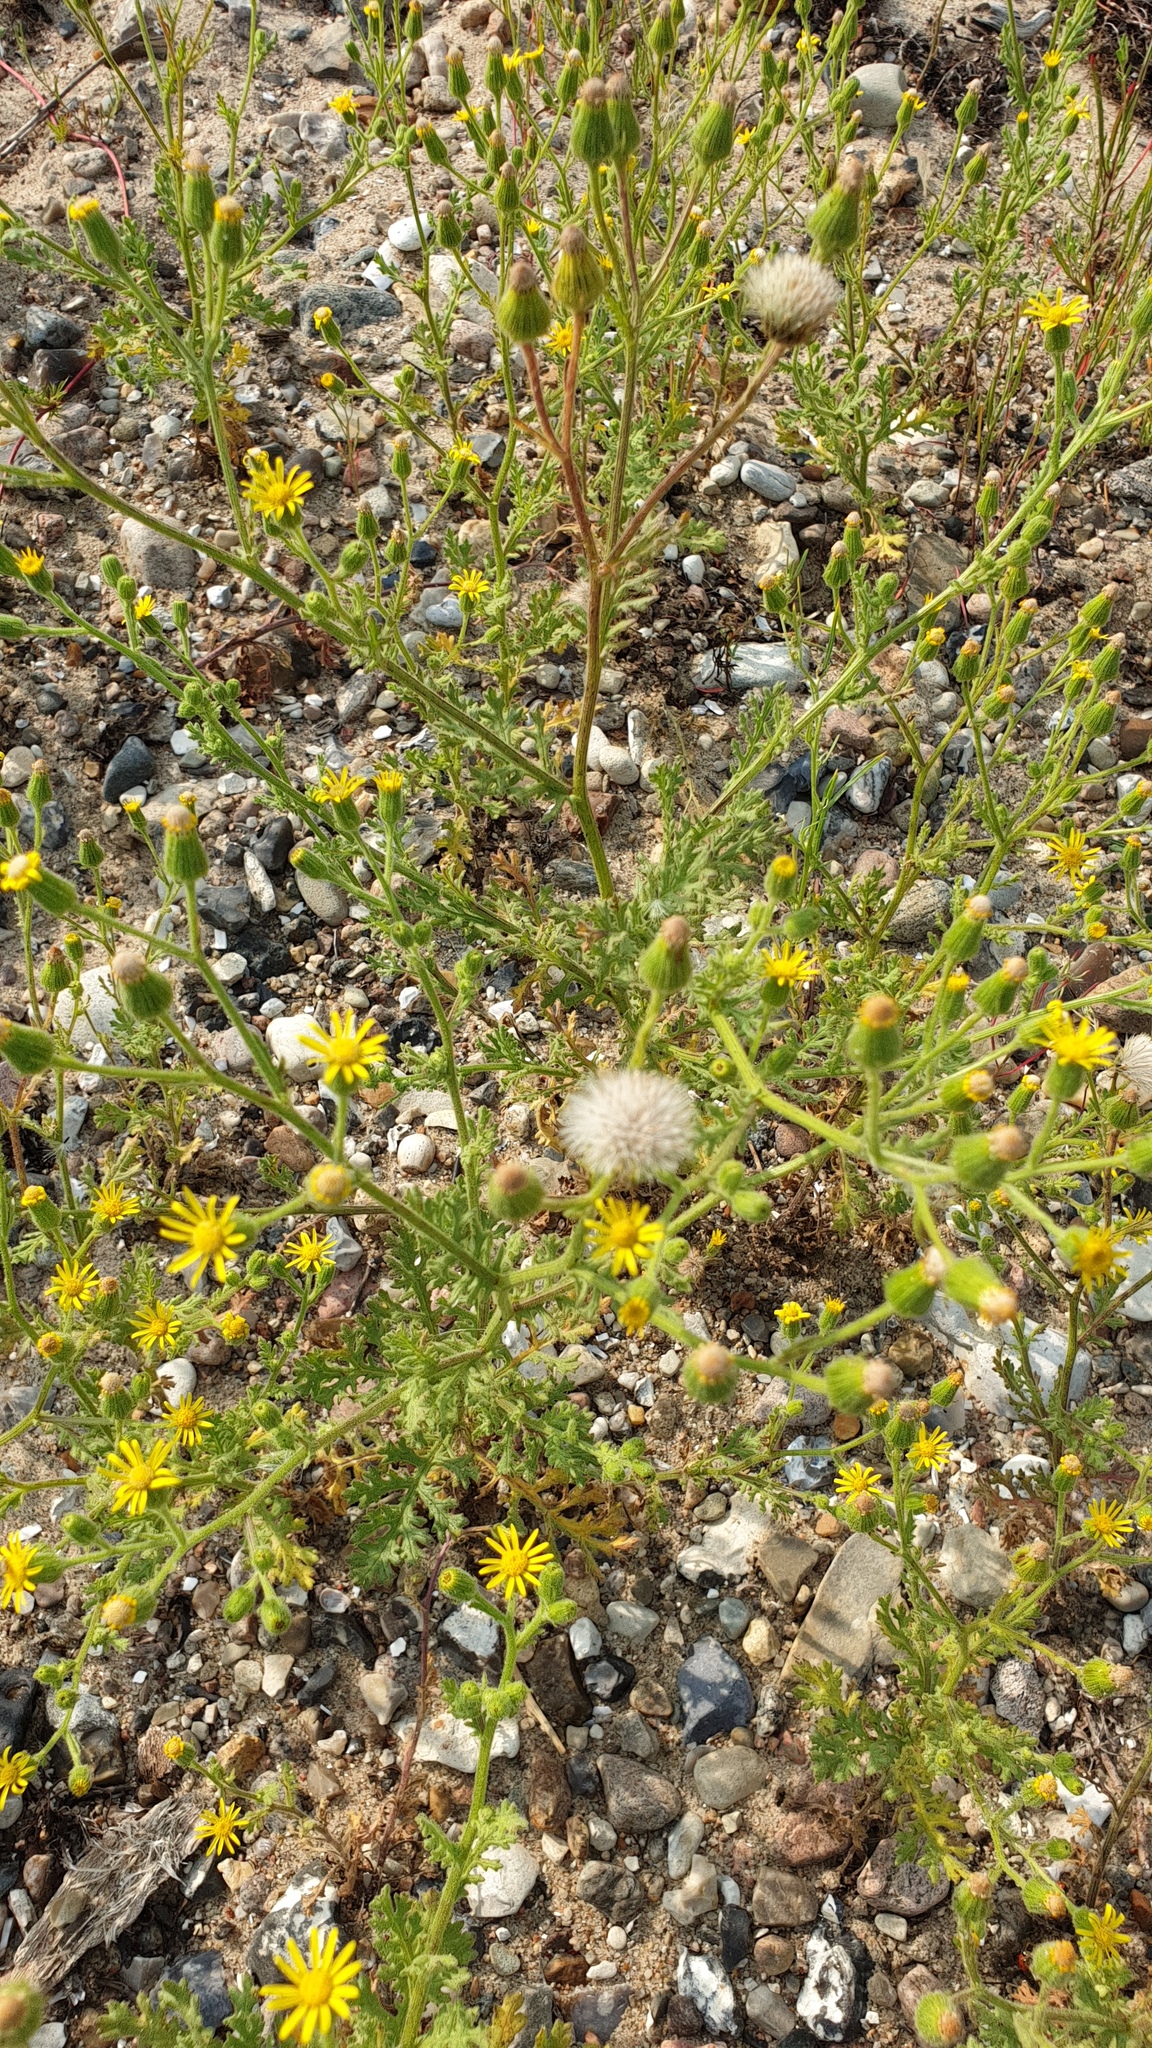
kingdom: Plantae
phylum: Tracheophyta
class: Magnoliopsida
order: Asterales
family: Asteraceae
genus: Senecio
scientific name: Senecio viscosus
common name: Sticky groundsel
